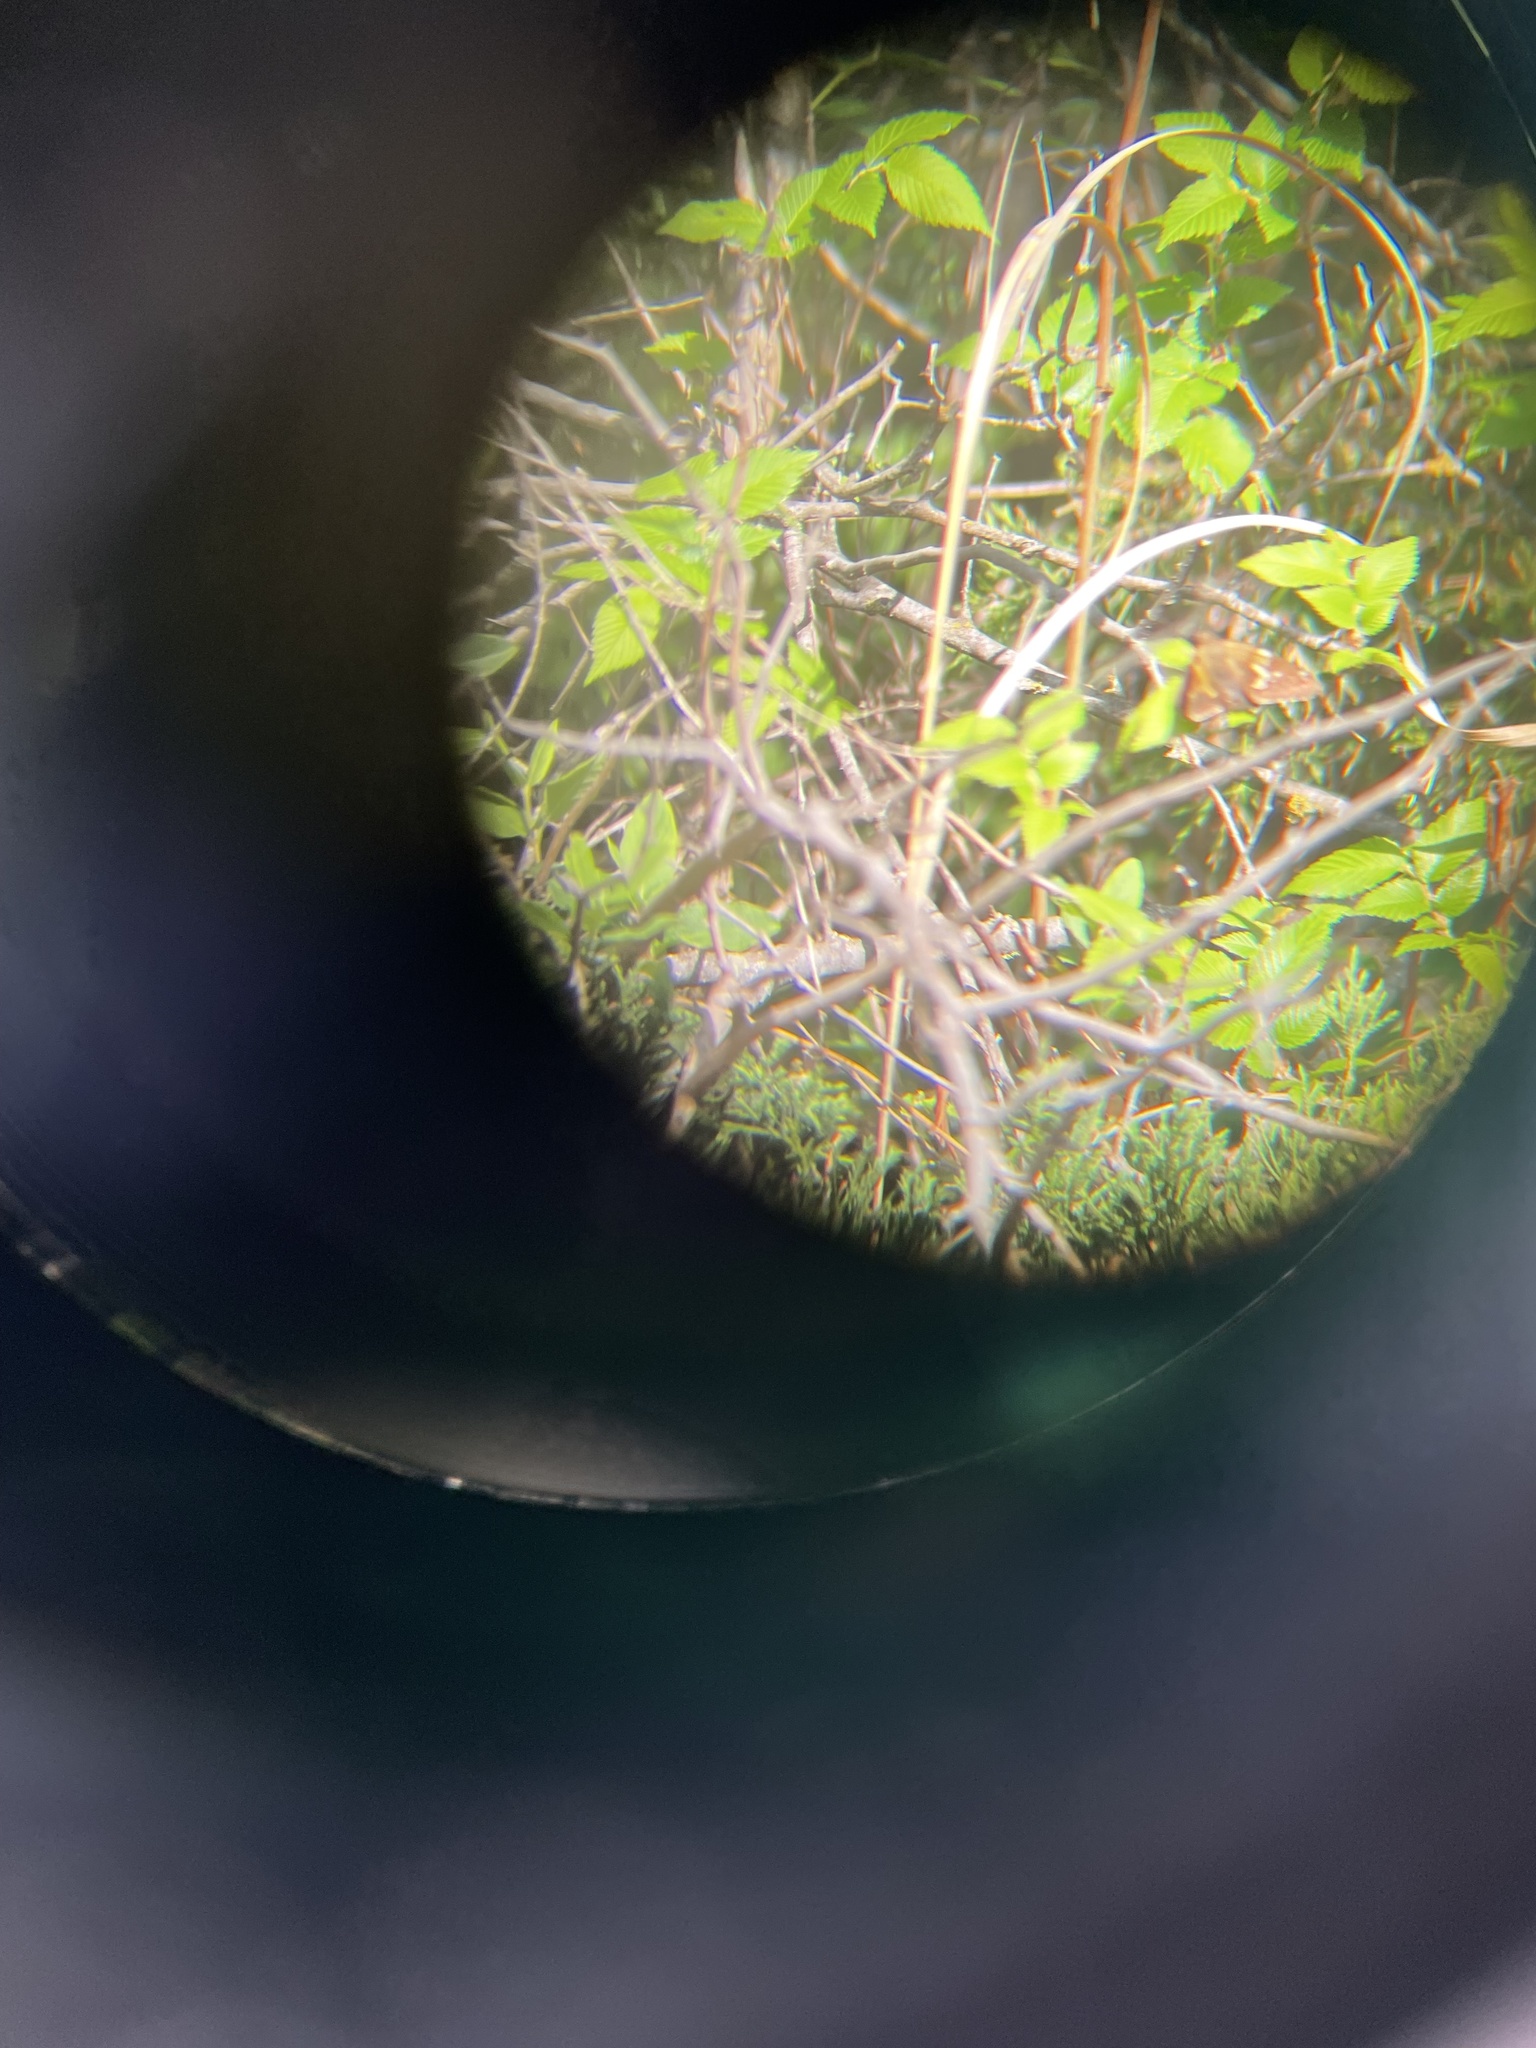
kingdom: Animalia
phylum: Arthropoda
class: Insecta
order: Lepidoptera
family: Hesperiidae
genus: Epargyreus
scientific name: Epargyreus clarus
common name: Silver-spotted skipper
